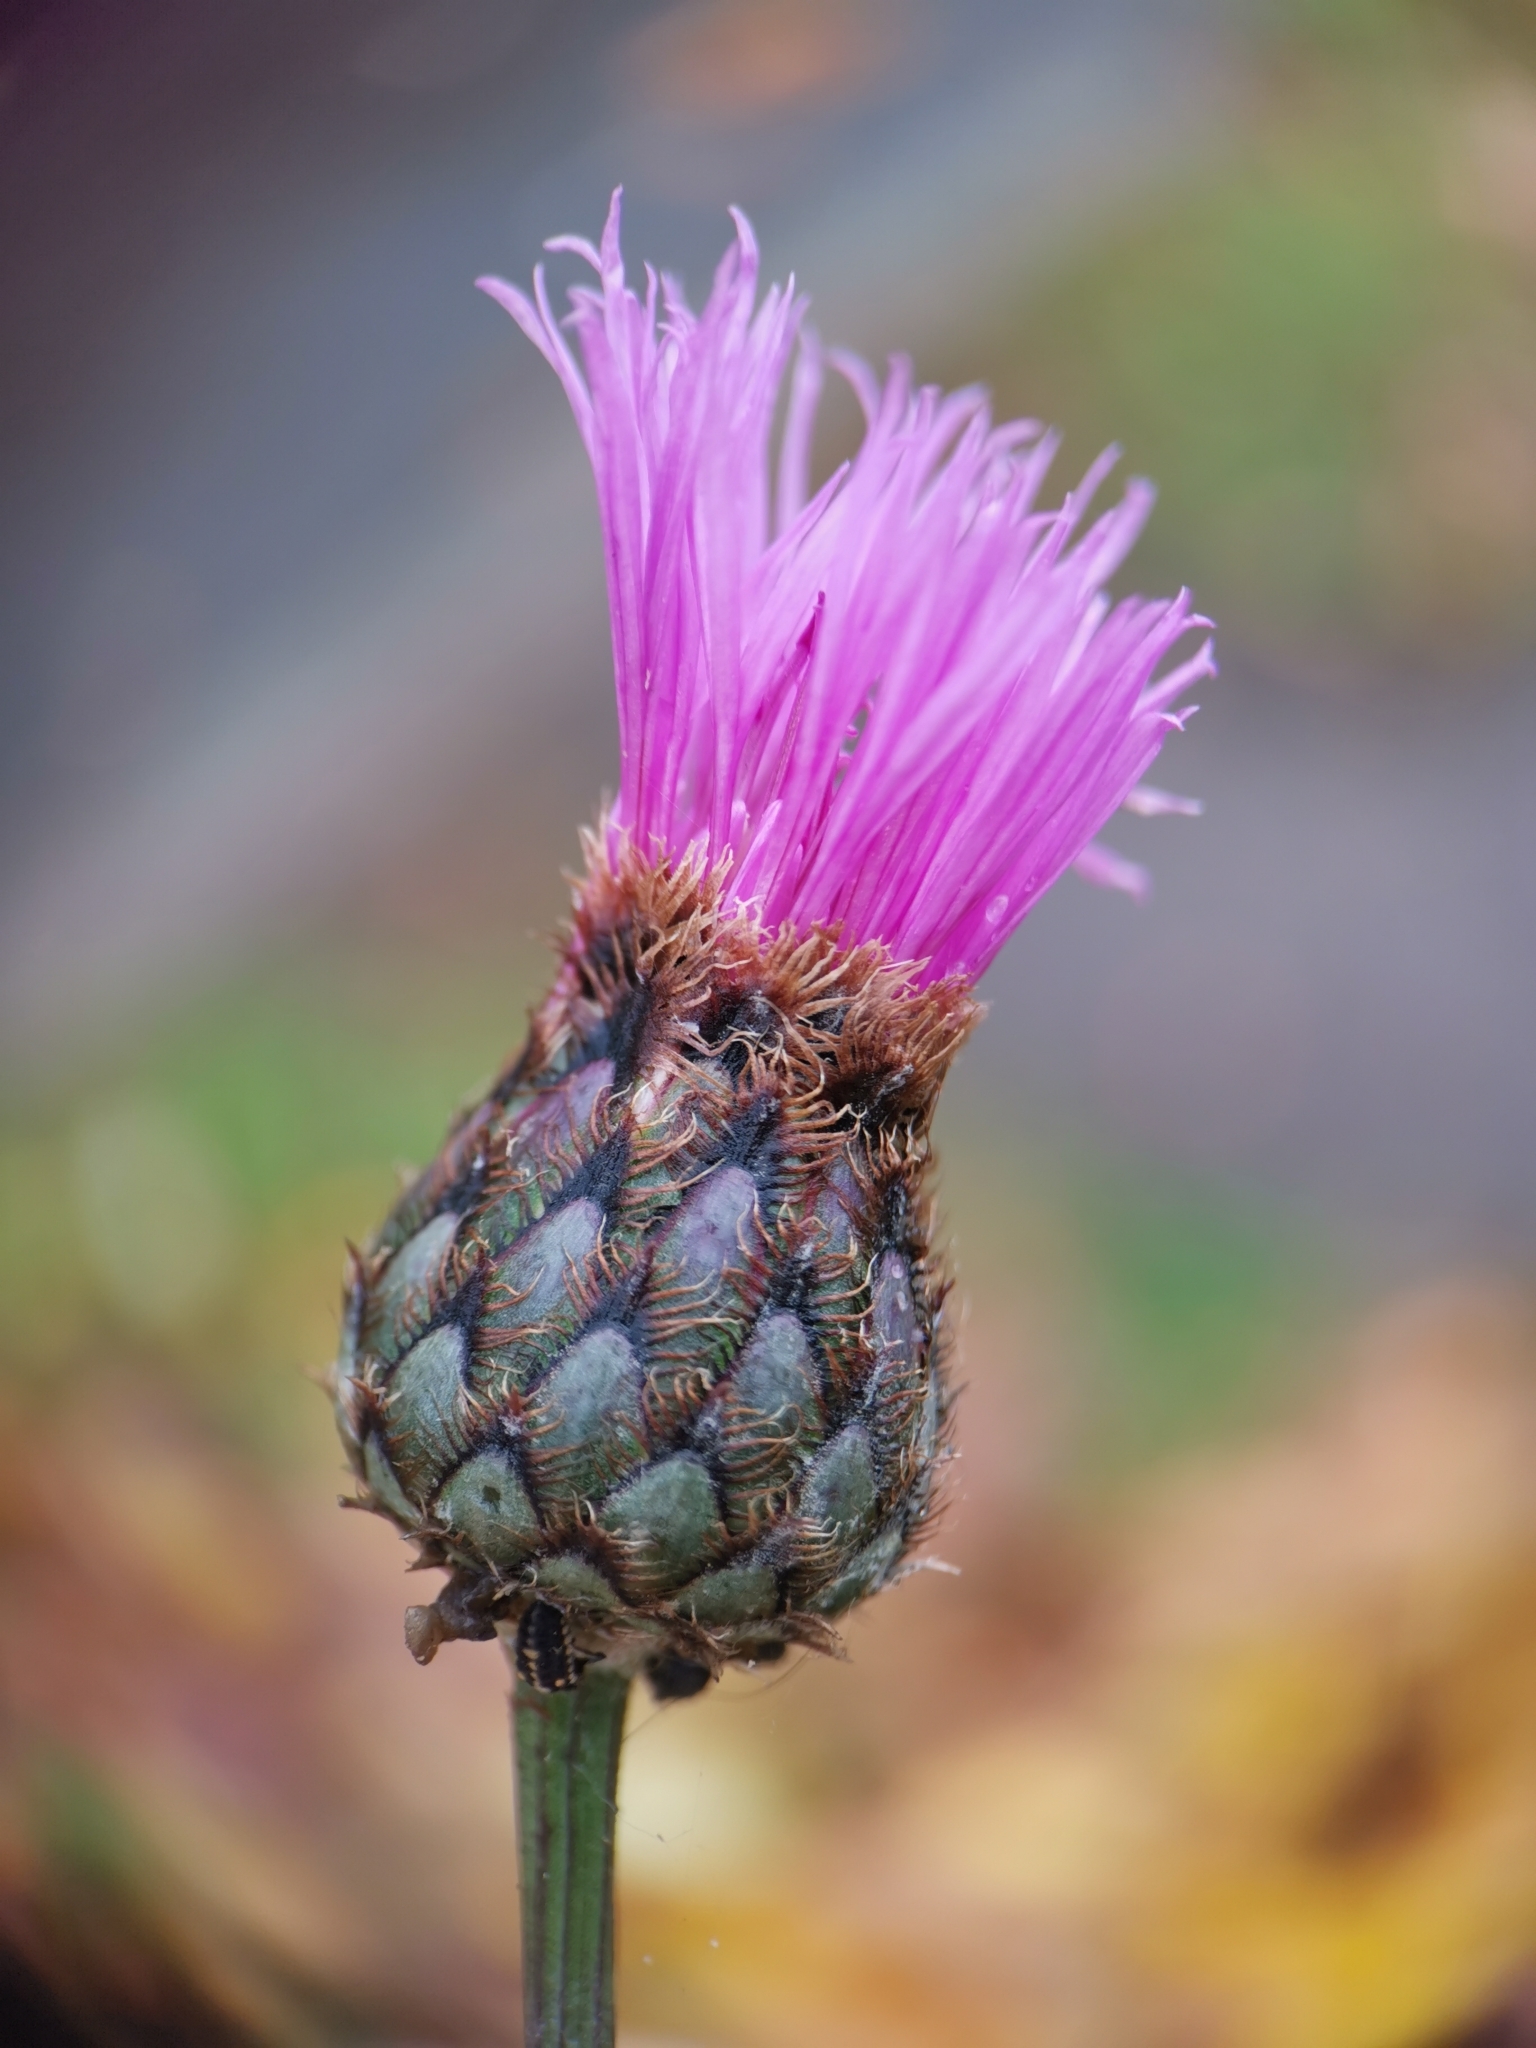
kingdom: Plantae
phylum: Tracheophyta
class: Magnoliopsida
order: Asterales
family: Asteraceae
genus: Centaurea
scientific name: Centaurea scabiosa
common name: Greater knapweed
